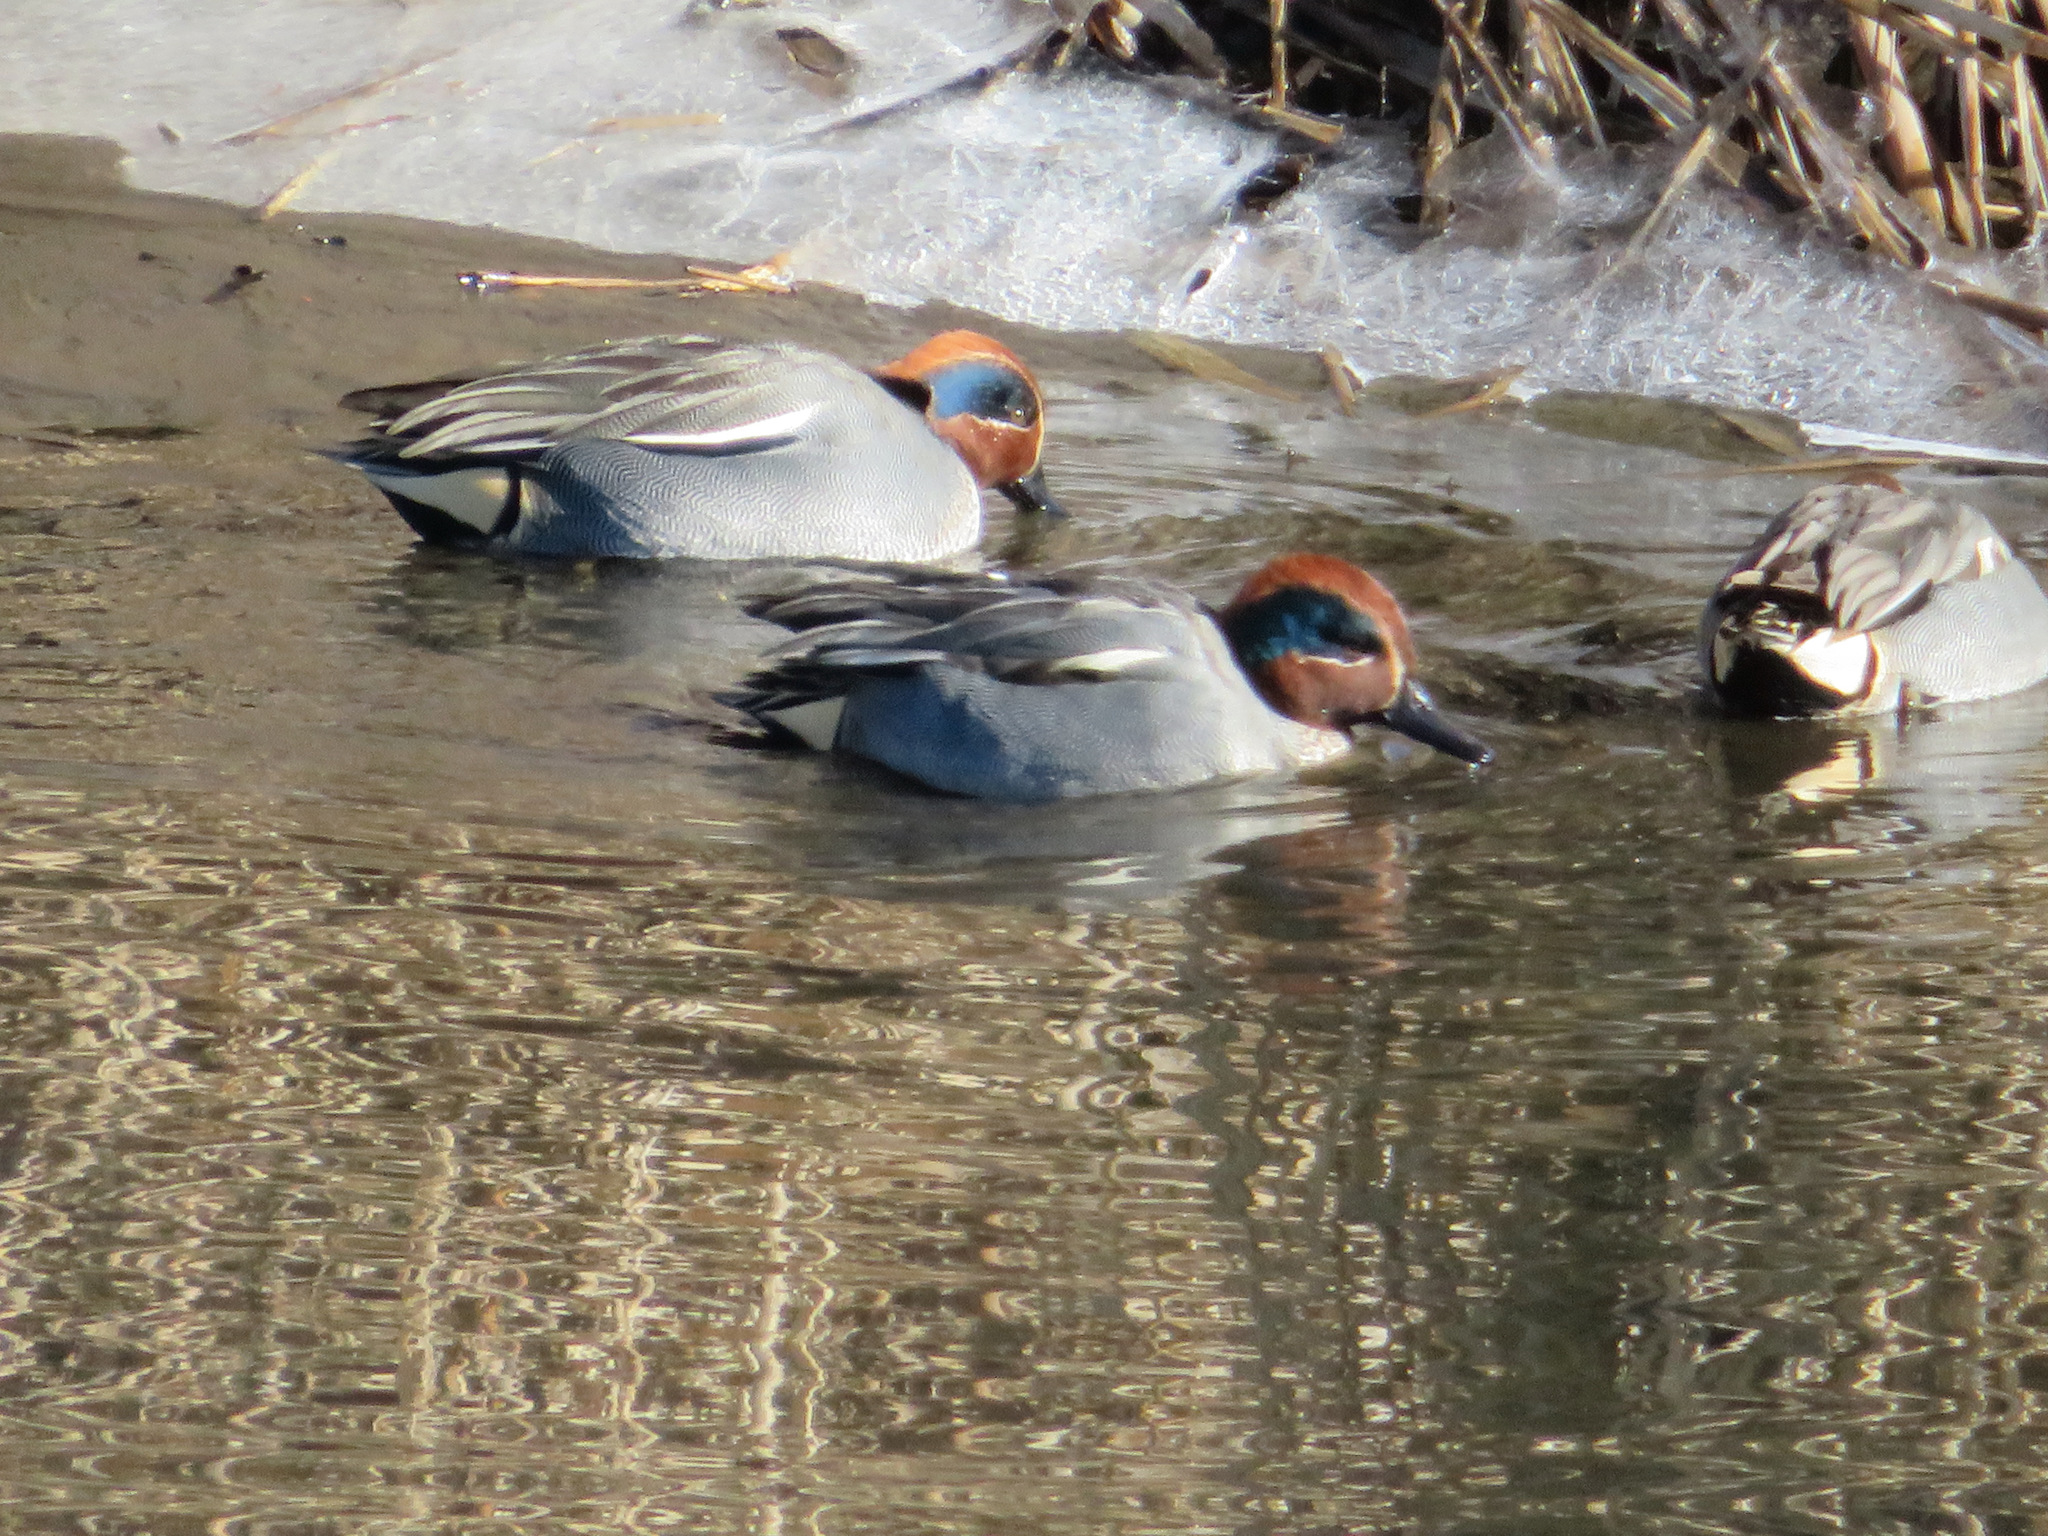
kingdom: Animalia
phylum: Chordata
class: Aves
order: Anseriformes
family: Anatidae
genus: Anas
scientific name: Anas crecca
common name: Eurasian teal
